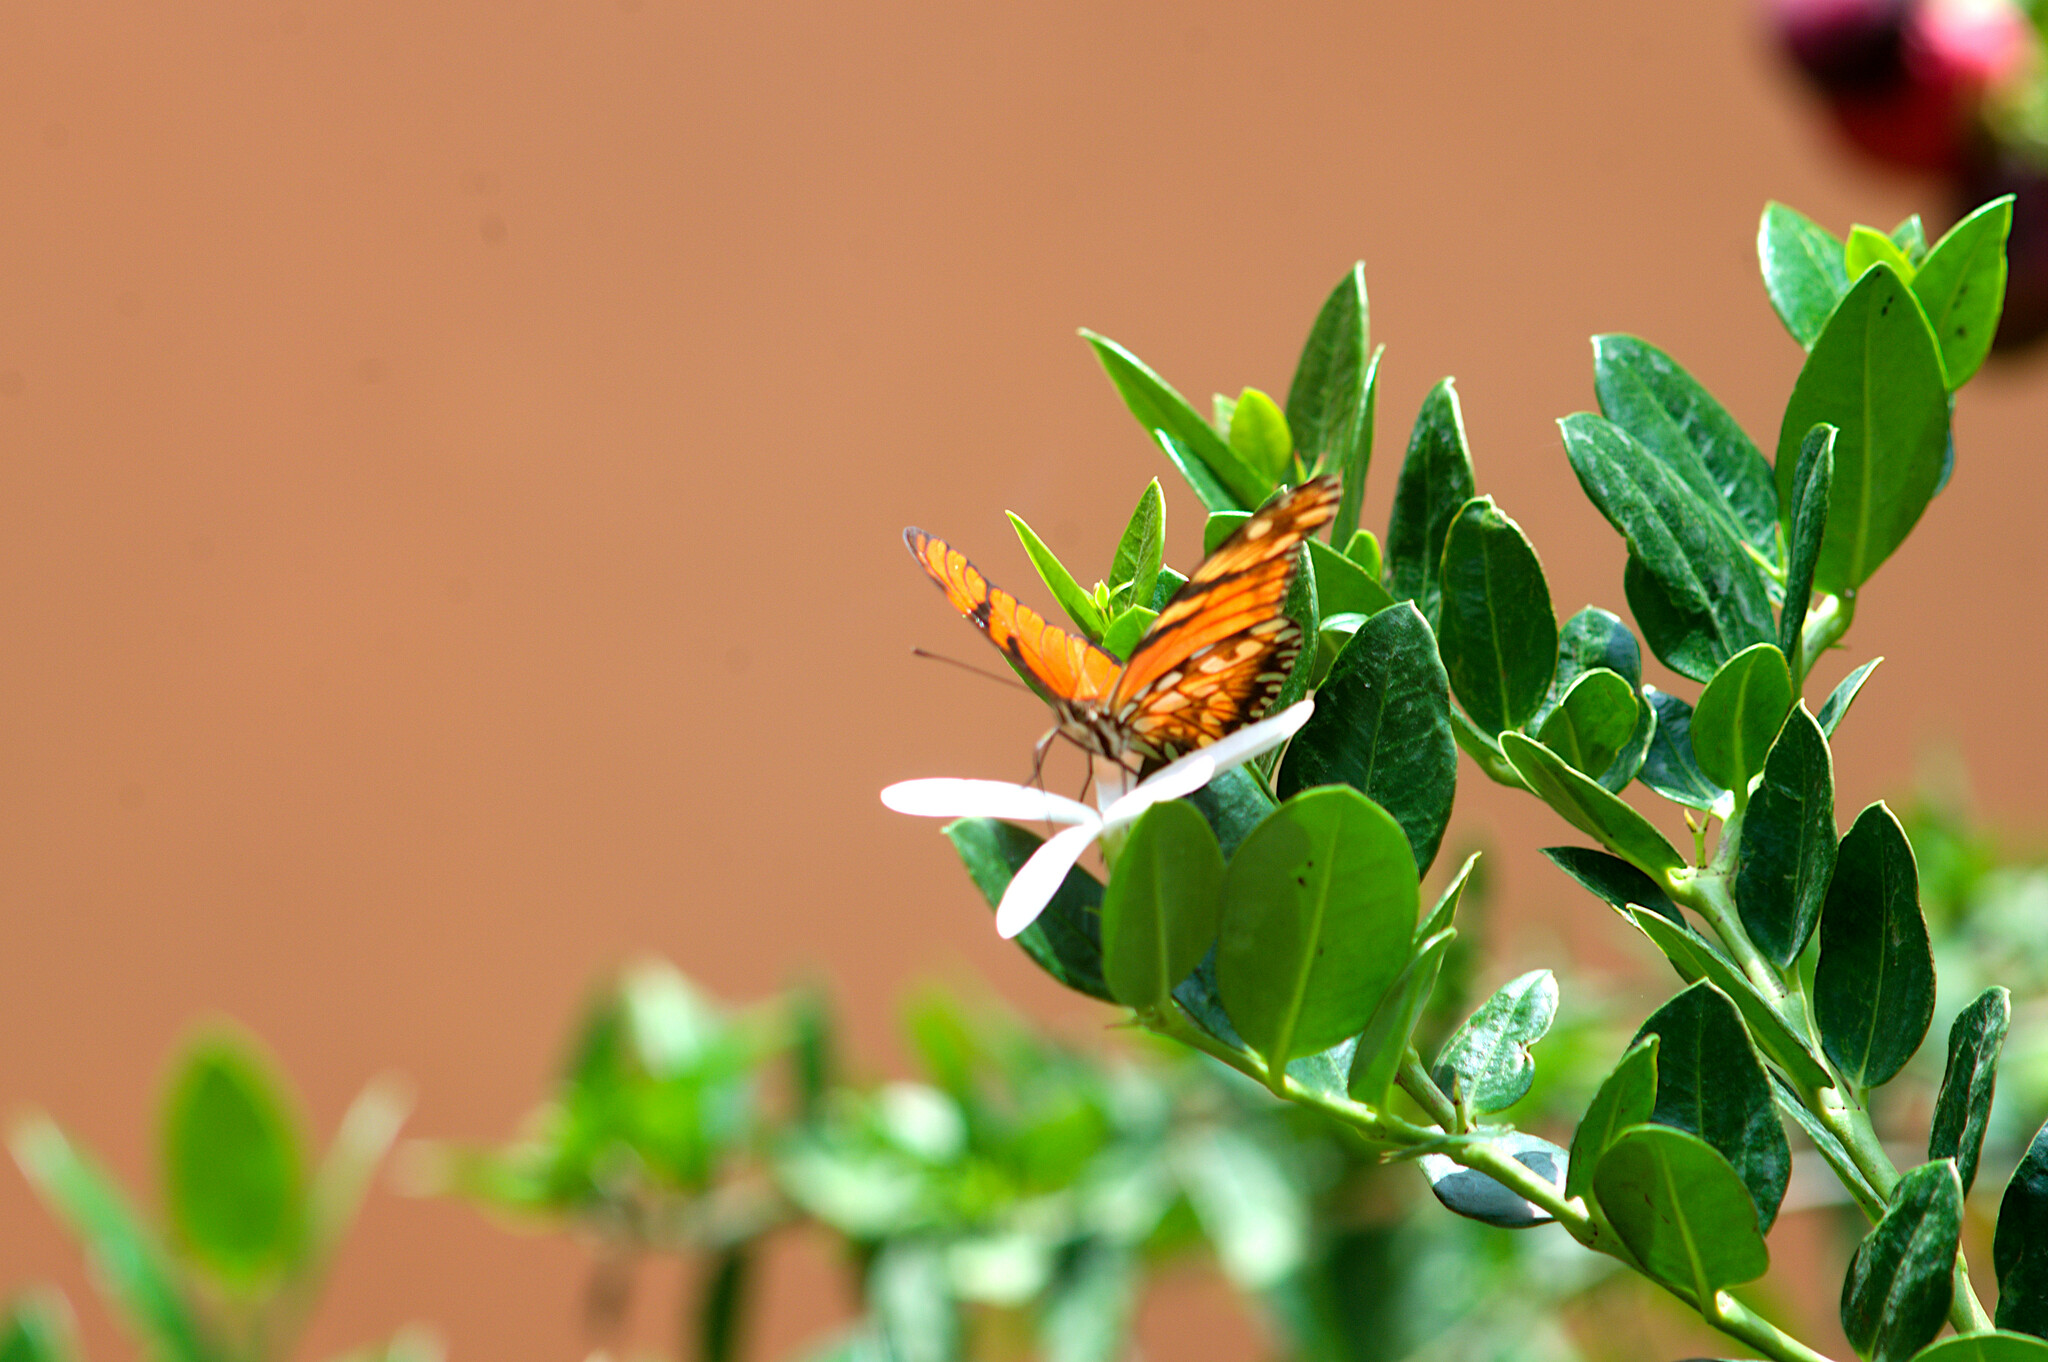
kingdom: Animalia
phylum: Arthropoda
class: Insecta
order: Lepidoptera
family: Nymphalidae
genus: Dione
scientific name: Dione juno
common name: Juno silverspot
